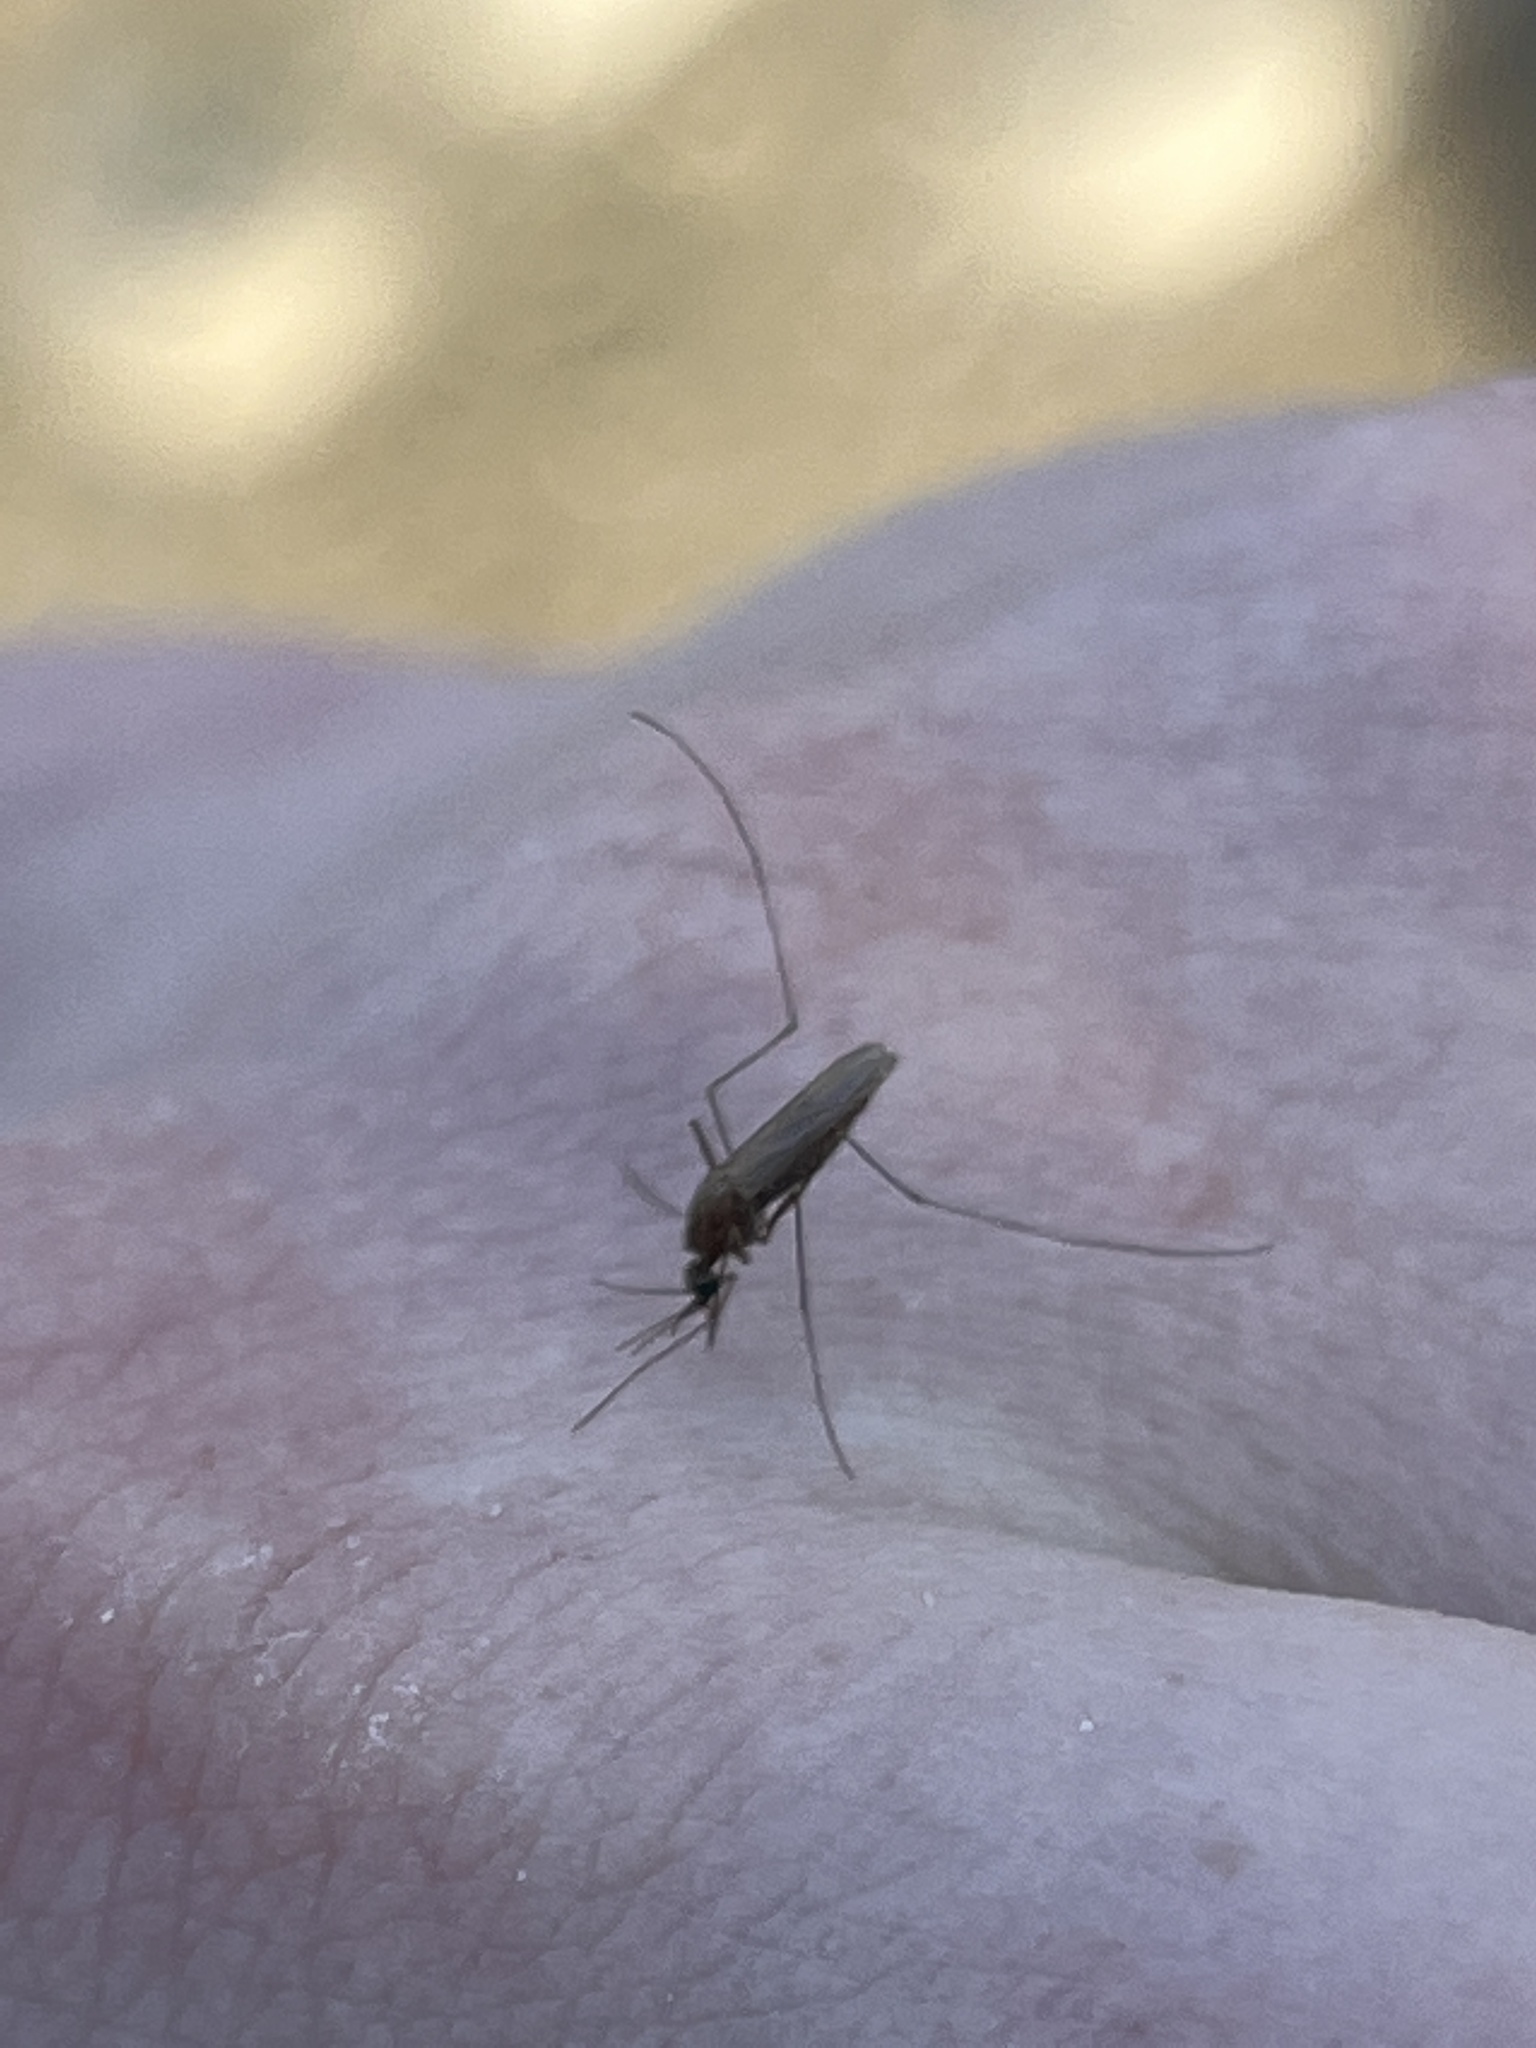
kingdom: Animalia
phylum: Arthropoda
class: Insecta
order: Diptera
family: Culicidae
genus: Anopheles
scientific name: Anopheles atropos
